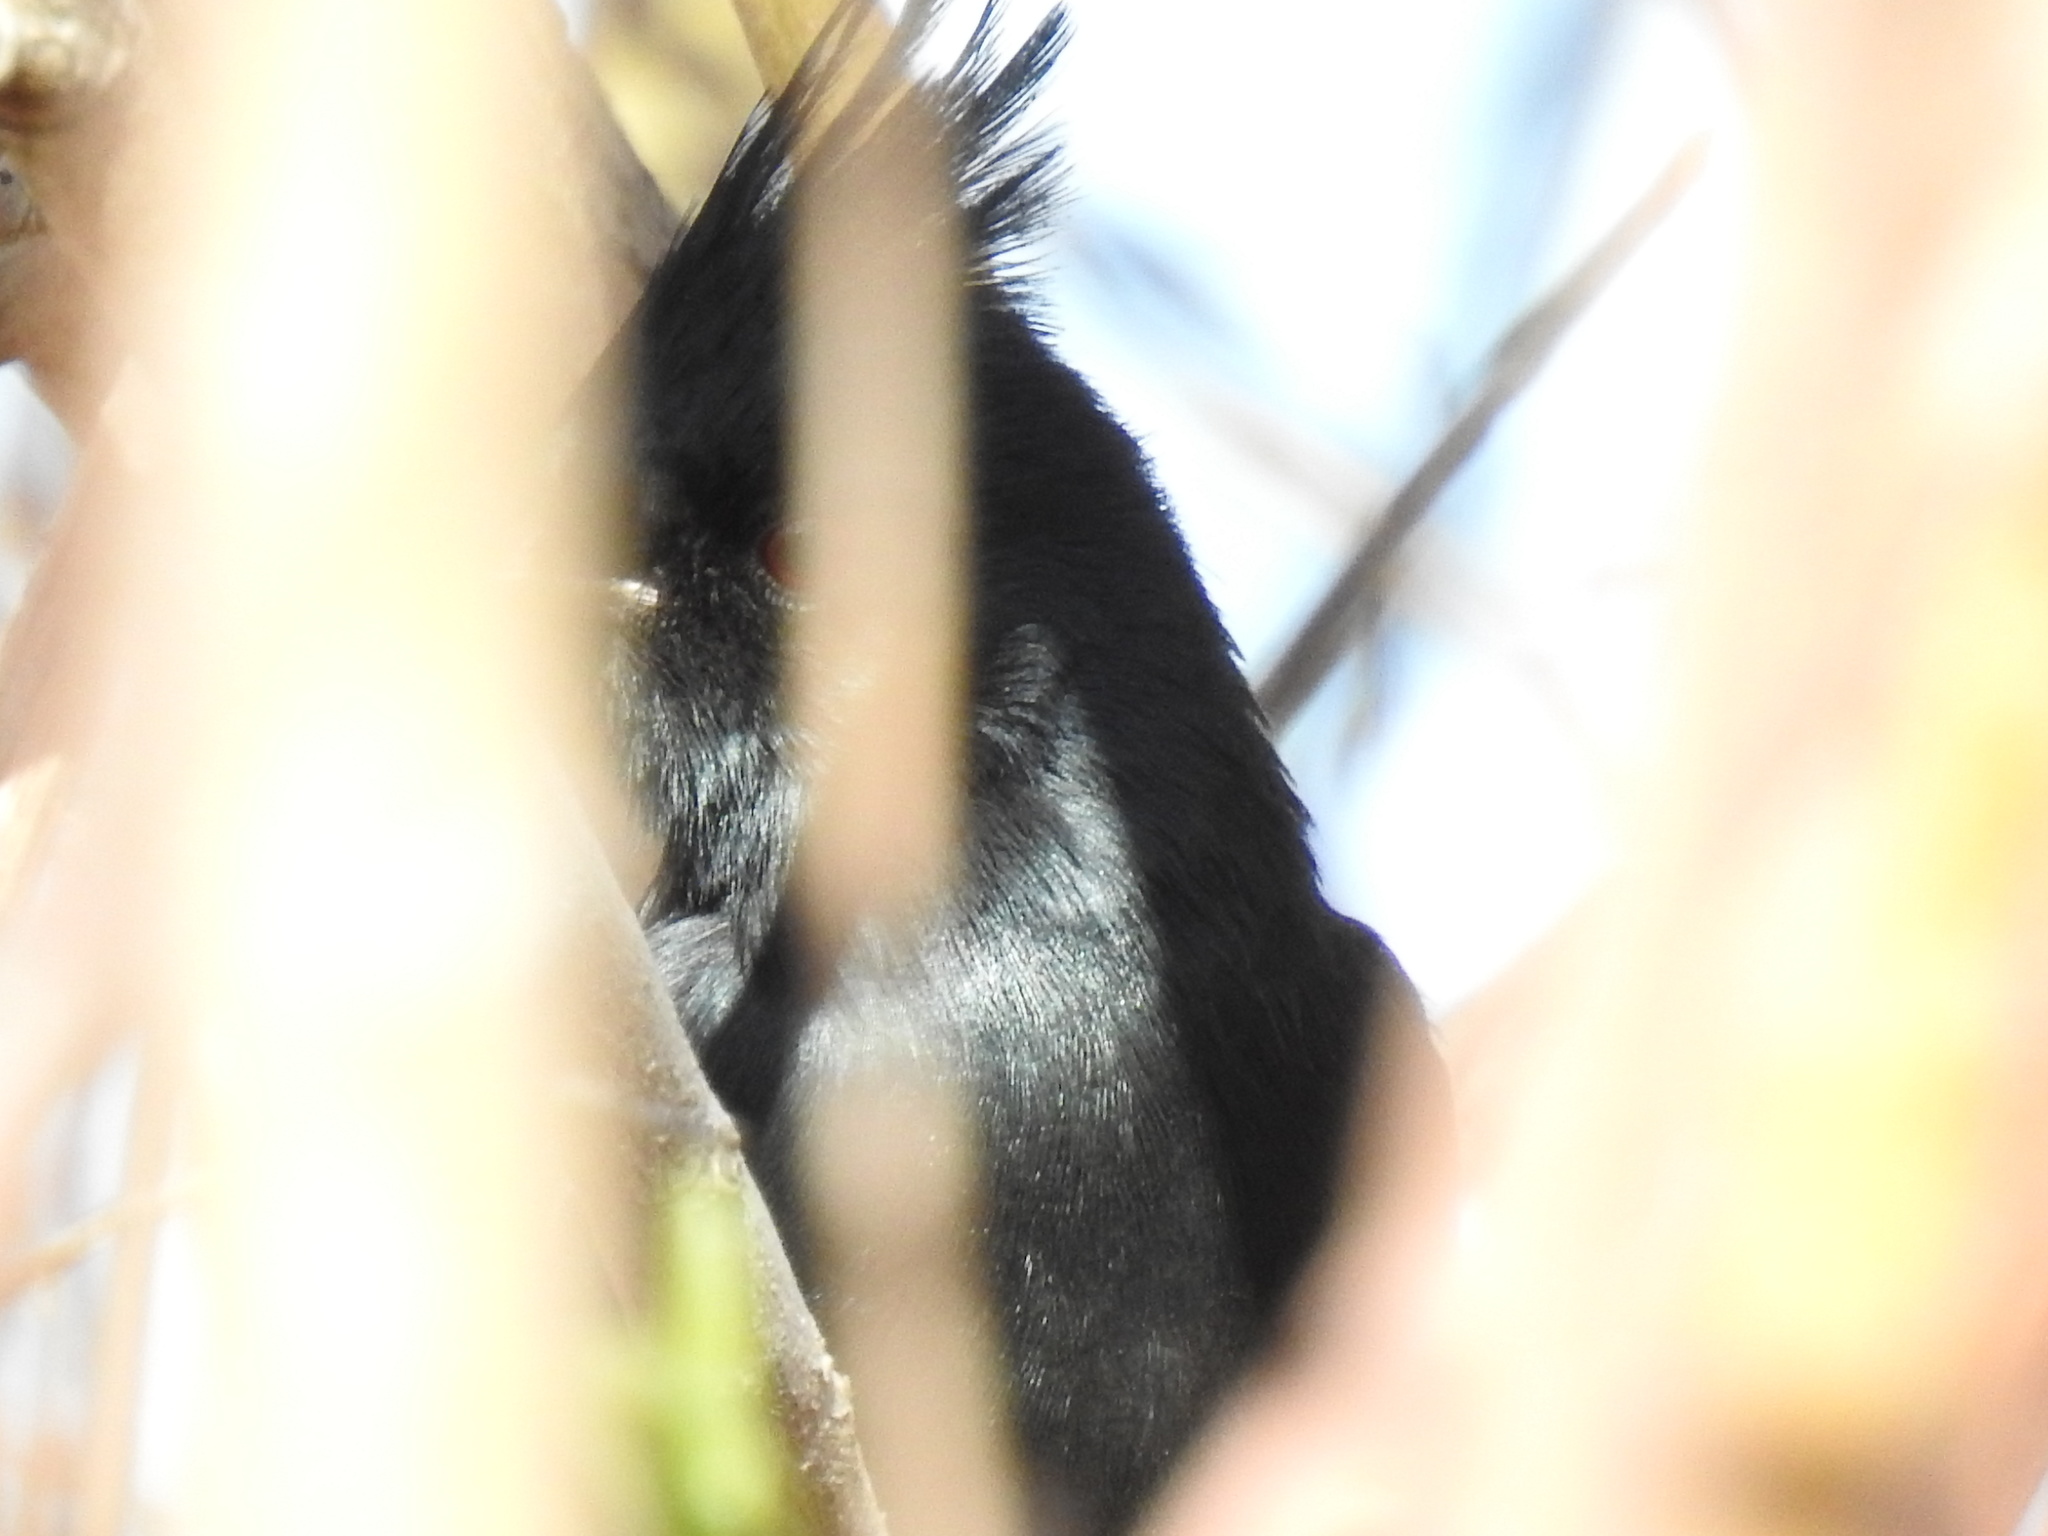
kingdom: Animalia
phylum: Chordata
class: Aves
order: Passeriformes
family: Ptilogonatidae
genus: Phainopepla
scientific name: Phainopepla nitens
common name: Phainopepla
